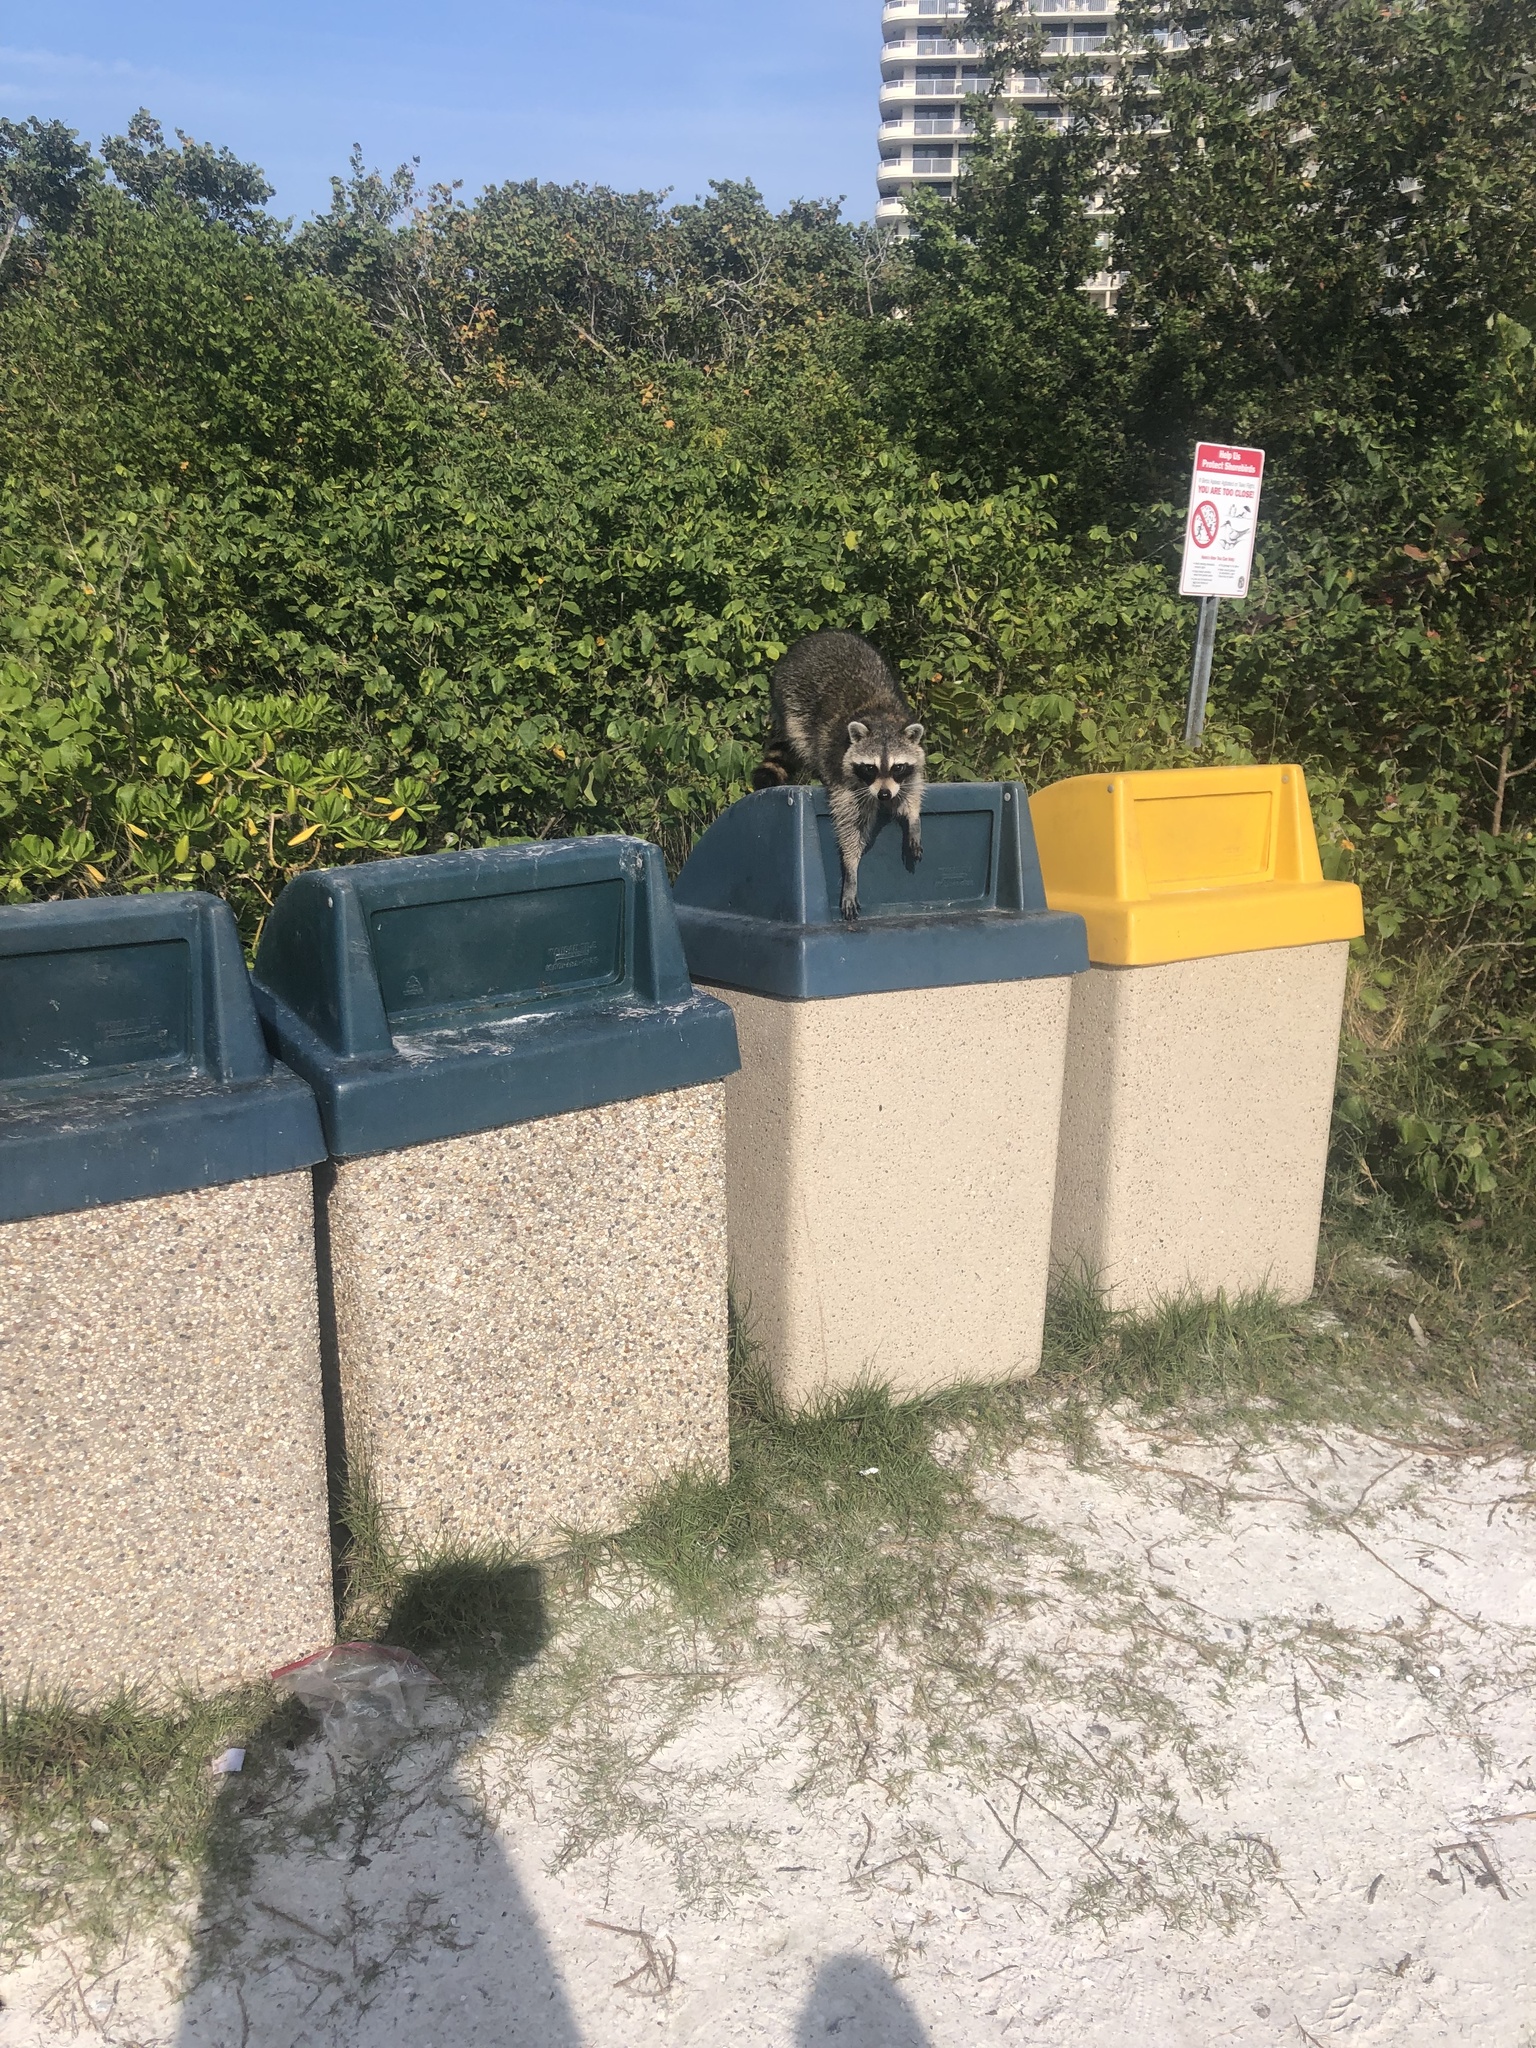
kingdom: Animalia
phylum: Chordata
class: Mammalia
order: Carnivora
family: Procyonidae
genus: Procyon
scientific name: Procyon lotor
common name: Raccoon
